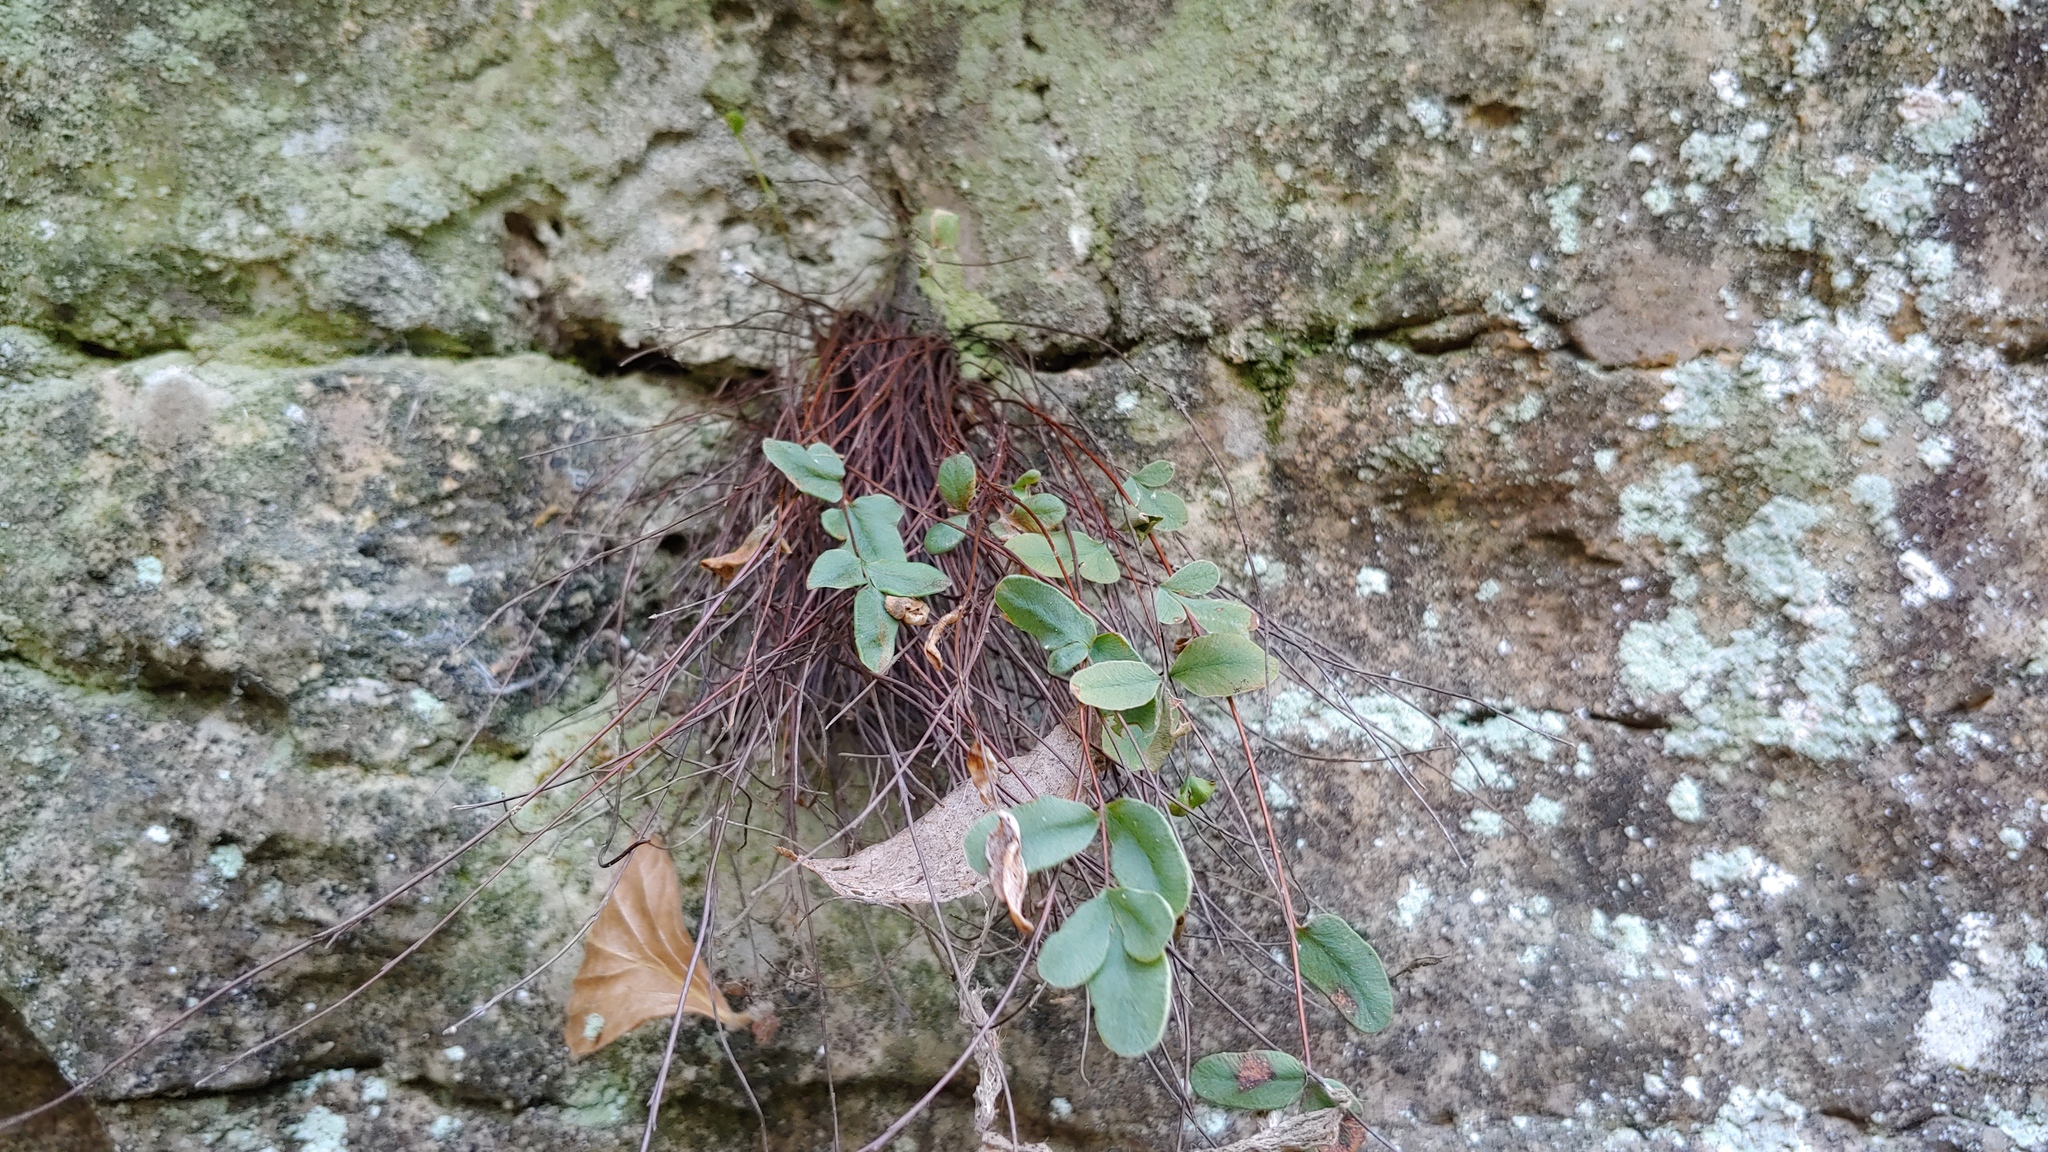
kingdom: Plantae
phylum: Tracheophyta
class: Polypodiopsida
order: Polypodiales
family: Pteridaceae
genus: Pellaea
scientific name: Pellaea glabella
